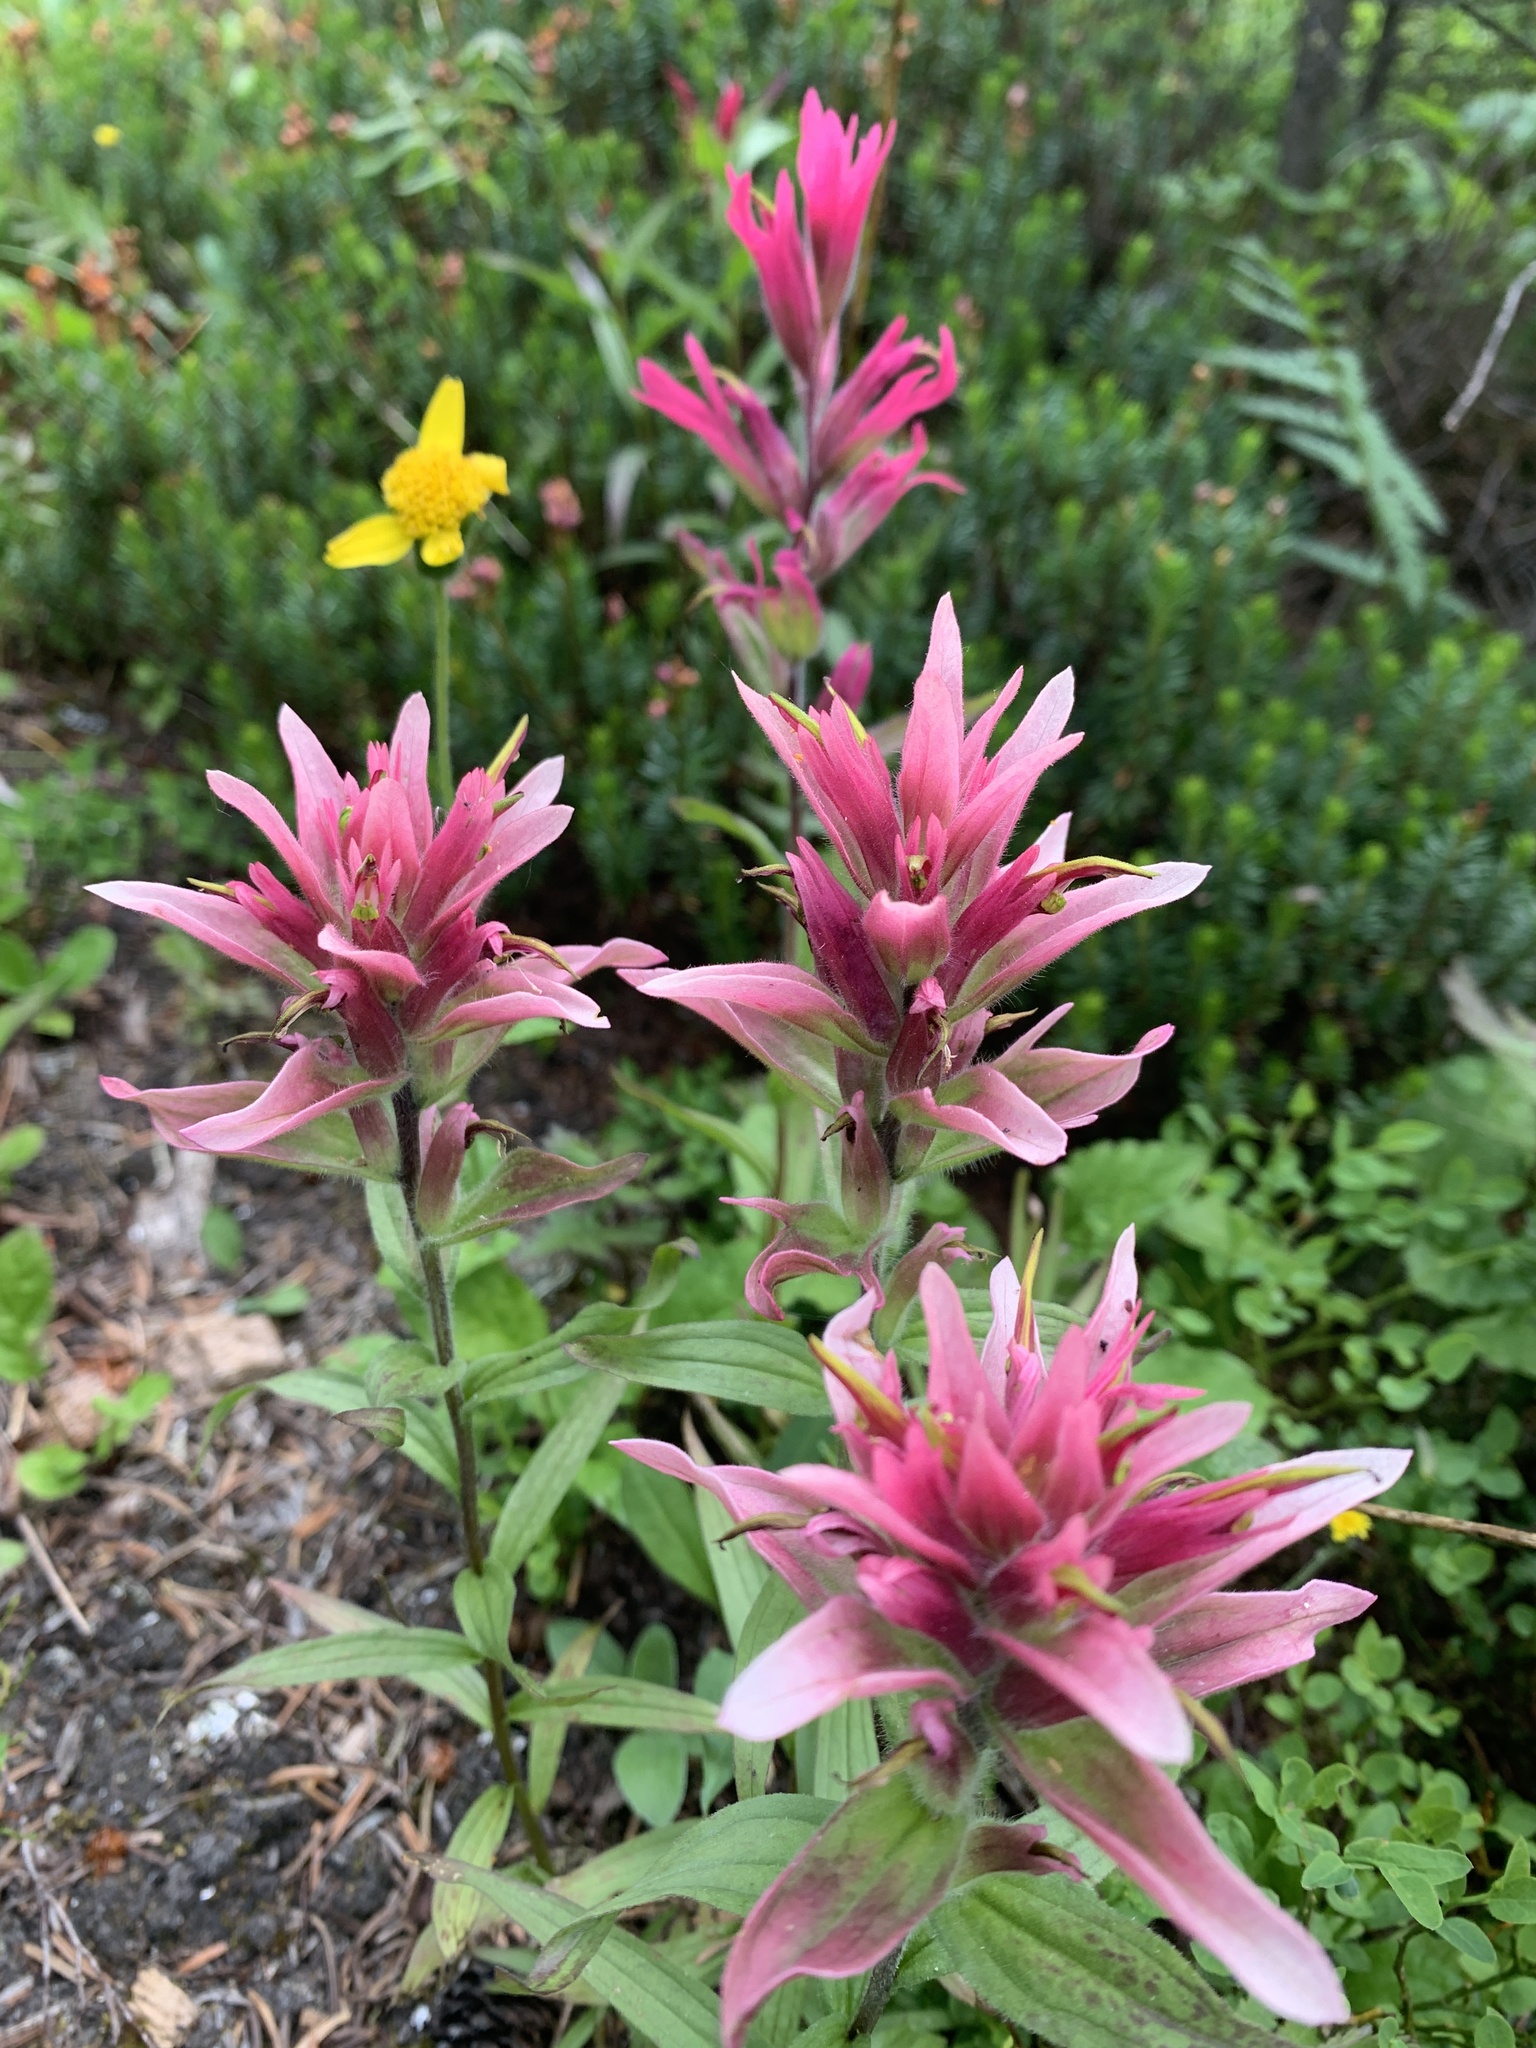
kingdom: Plantae
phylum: Tracheophyta
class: Magnoliopsida
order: Lamiales
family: Orobanchaceae
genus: Castilleja
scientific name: Castilleja miniata
